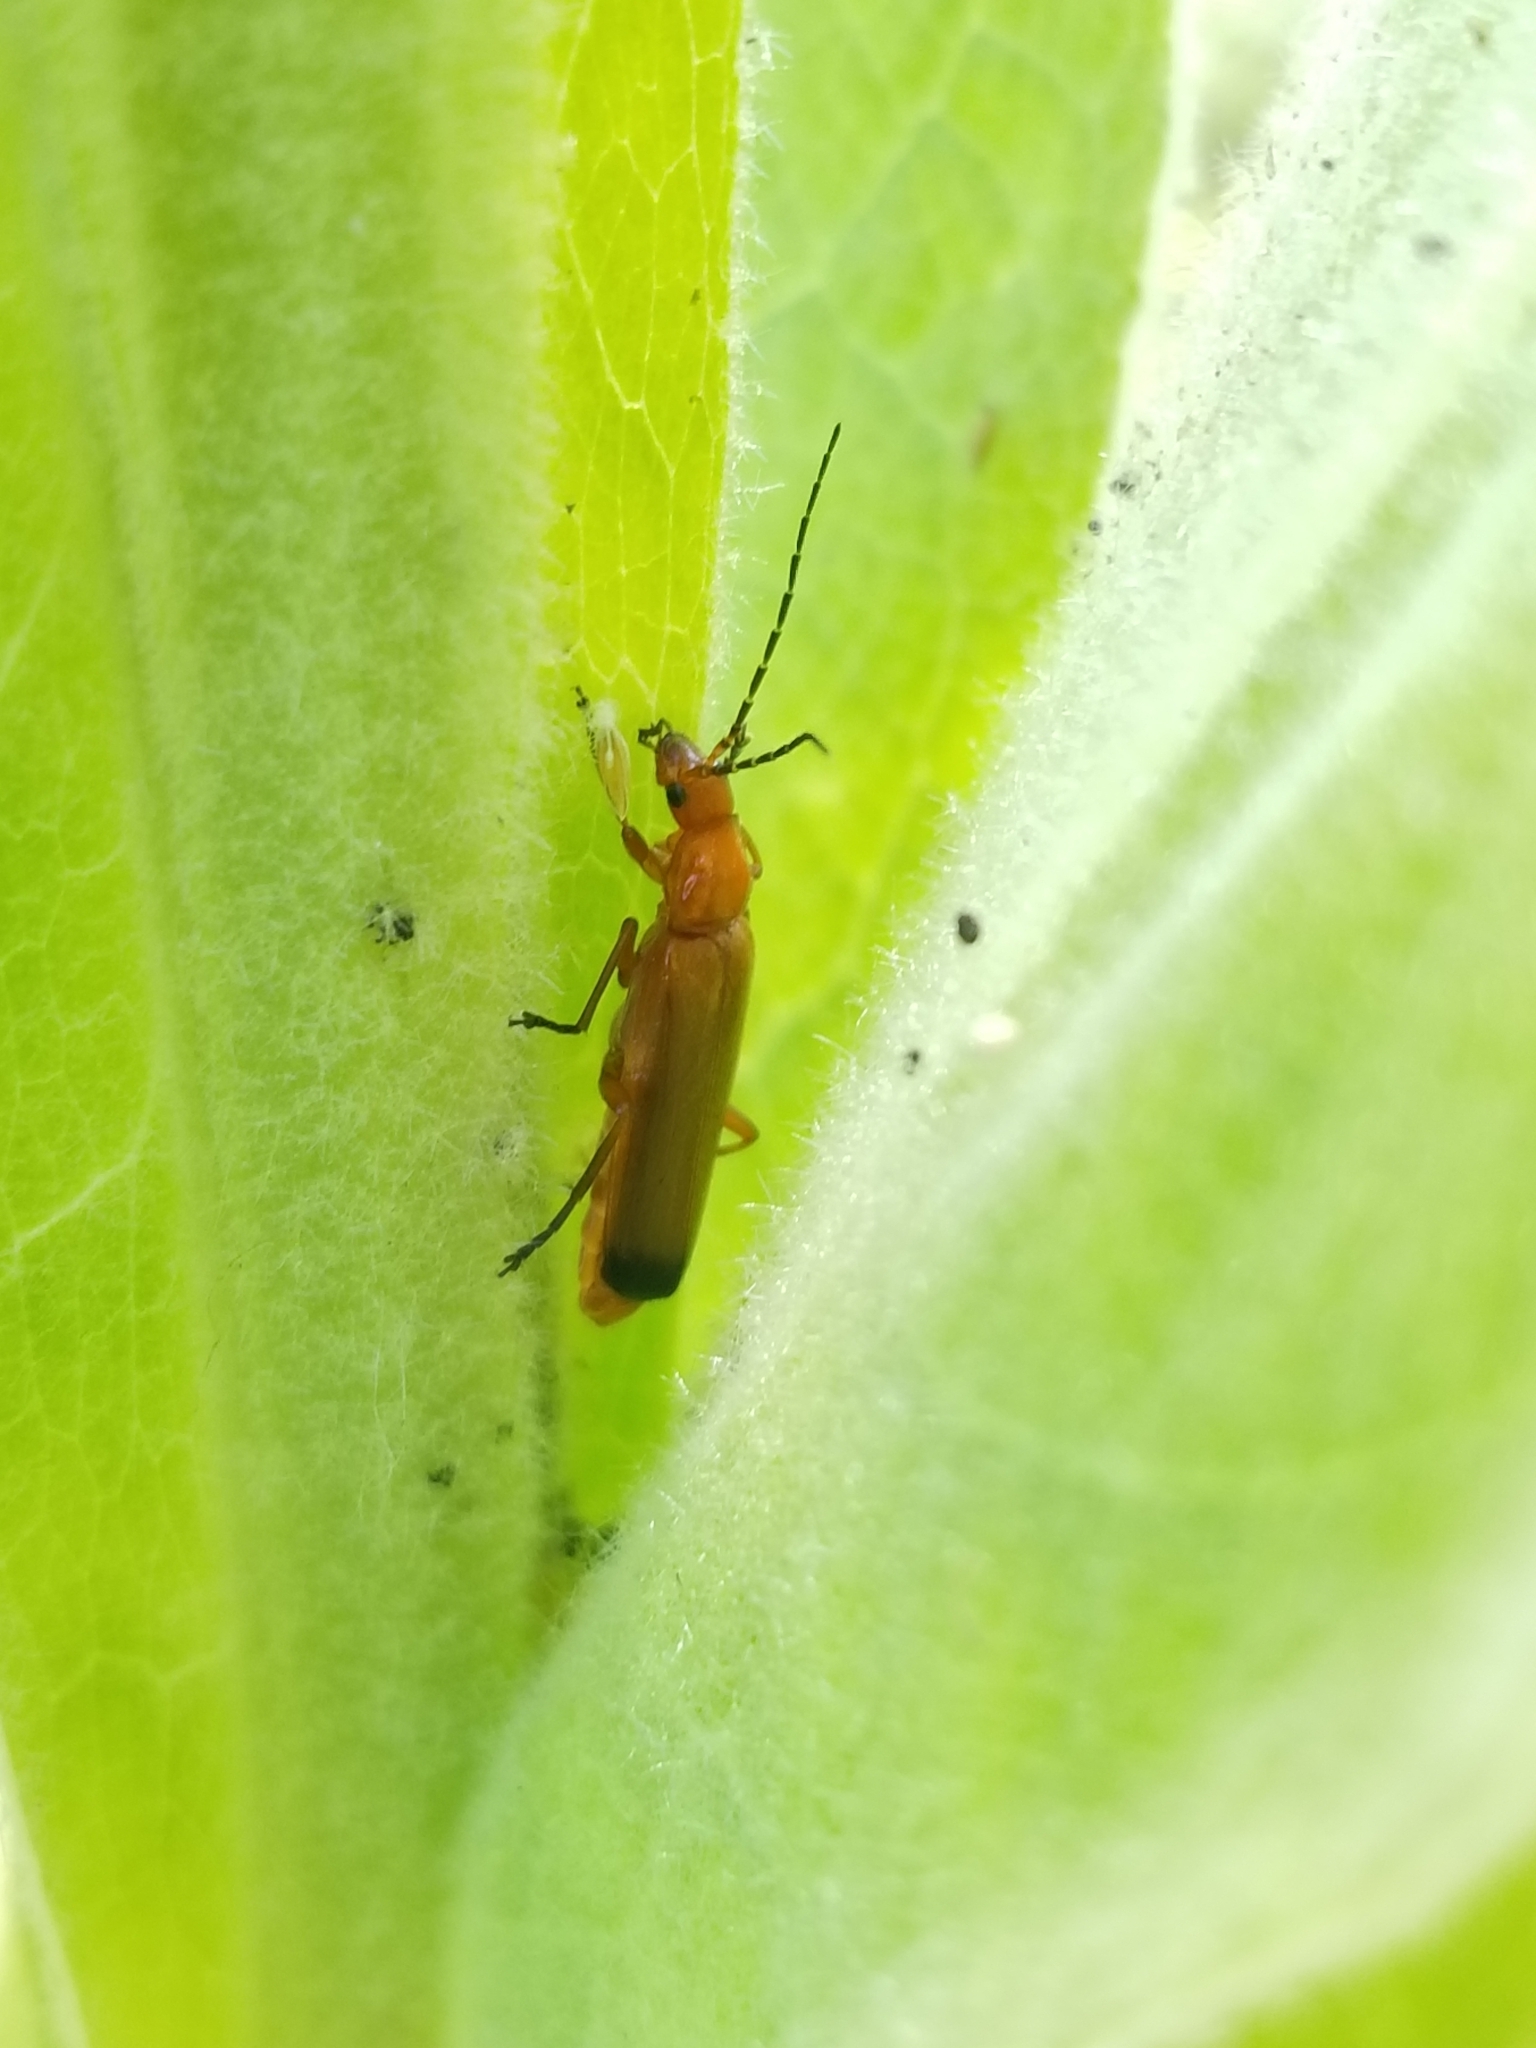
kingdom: Animalia
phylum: Arthropoda
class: Insecta
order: Coleoptera
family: Cantharidae
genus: Rhagonycha
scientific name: Rhagonycha fulva
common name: Common red soldier beetle
